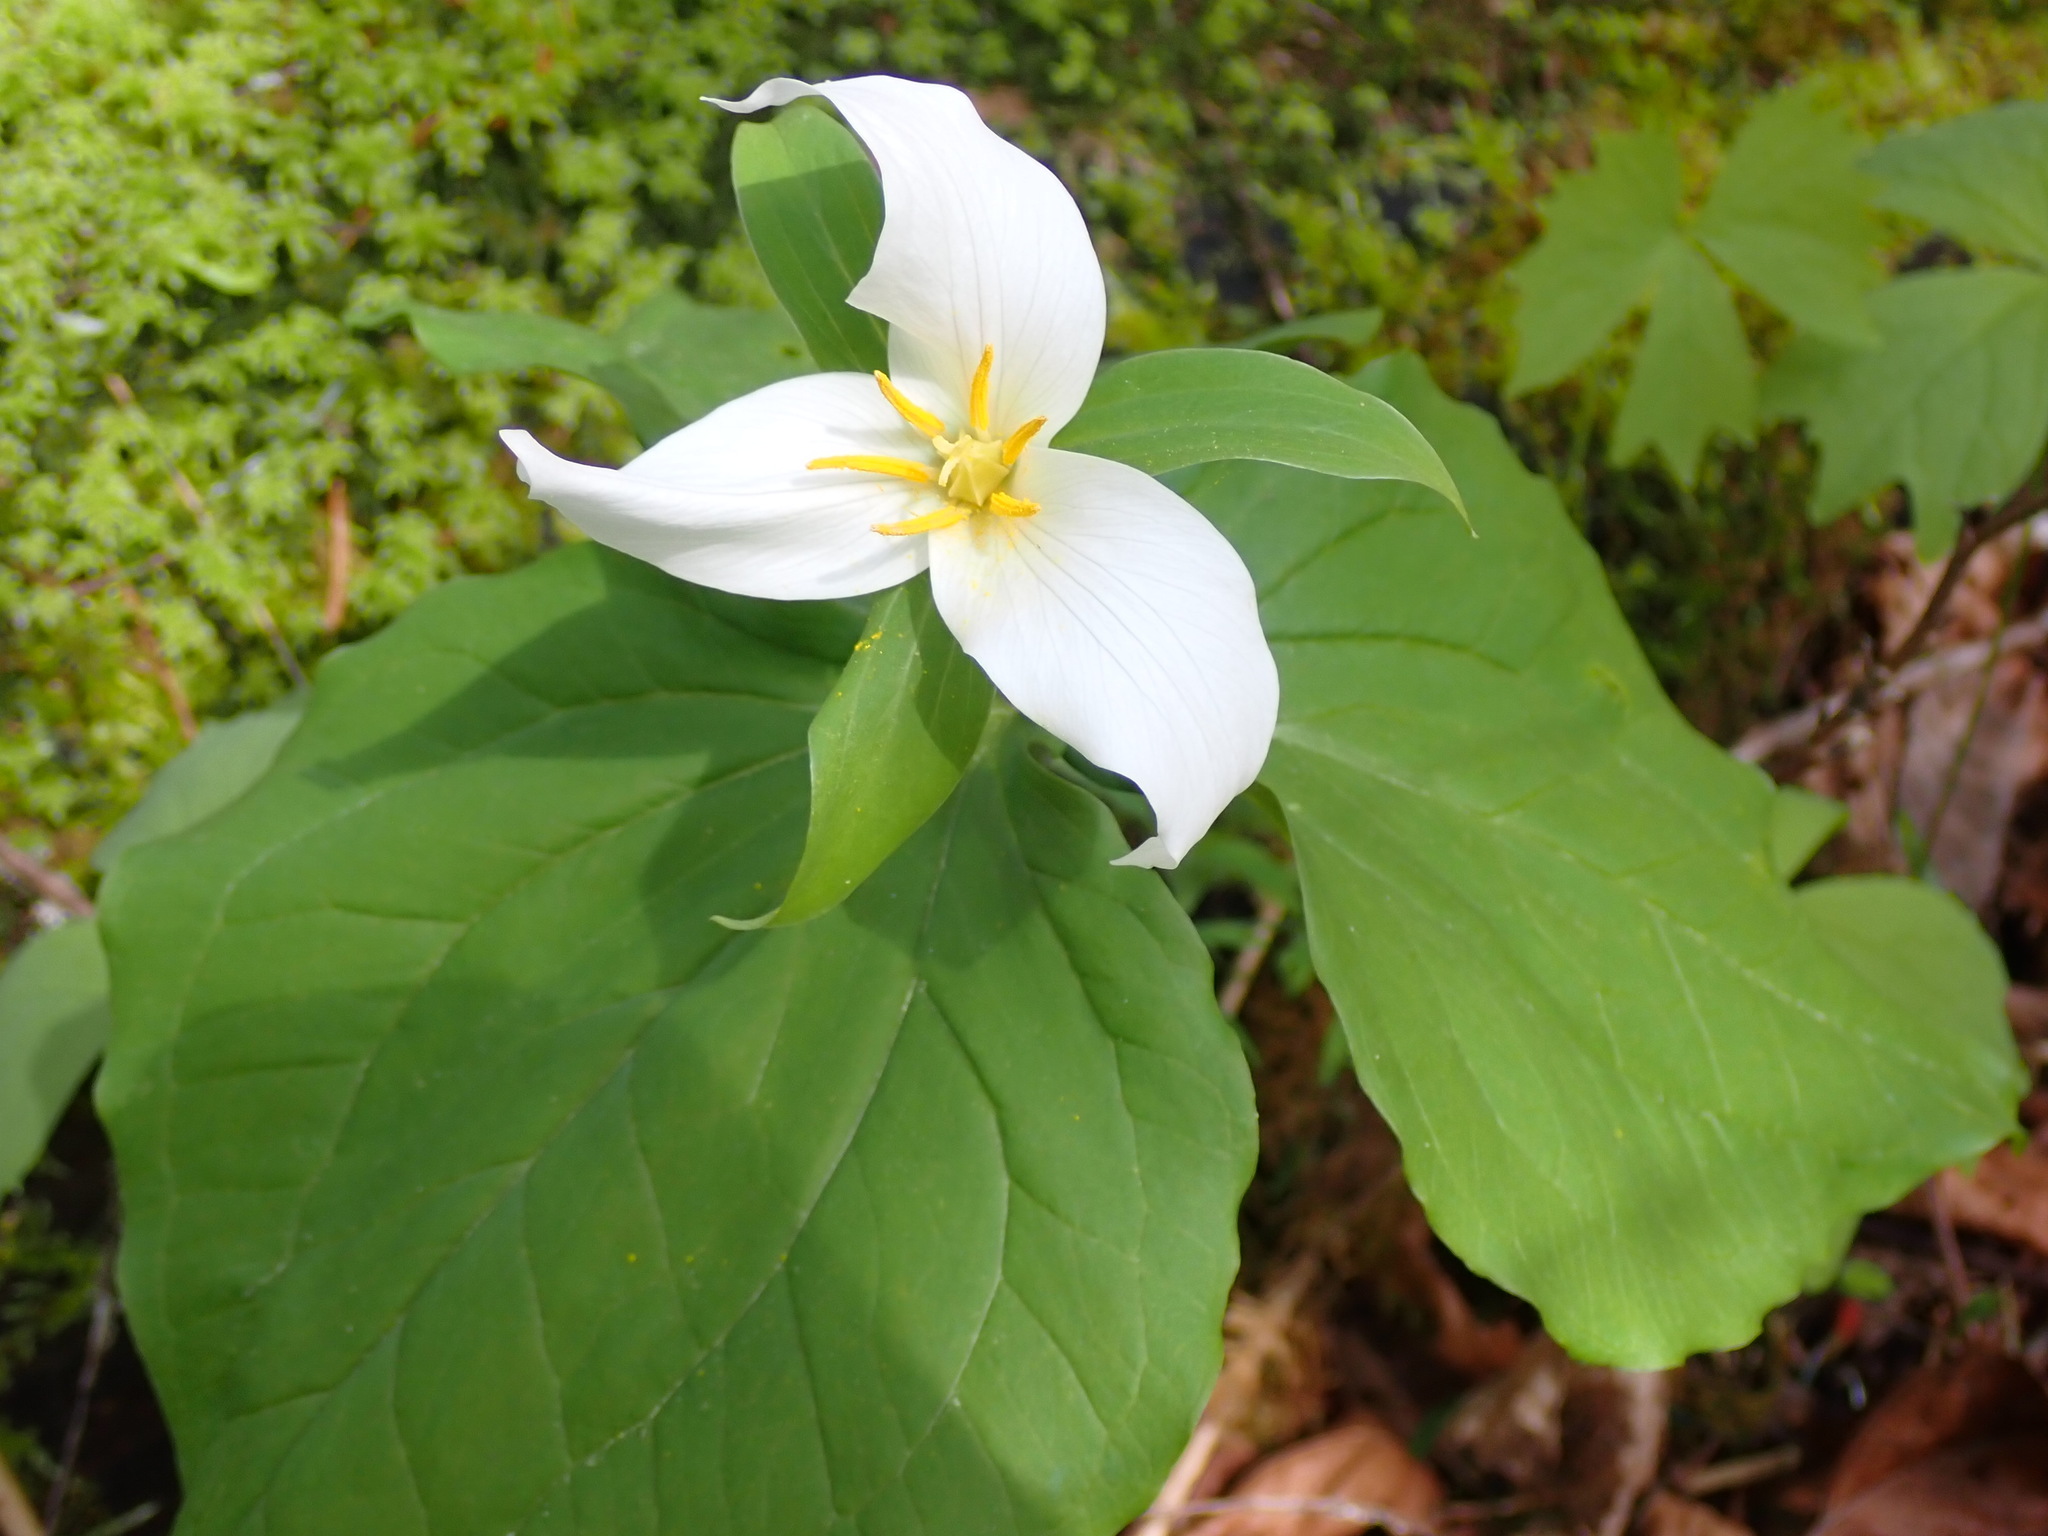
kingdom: Plantae
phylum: Tracheophyta
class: Liliopsida
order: Liliales
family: Melanthiaceae
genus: Trillium
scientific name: Trillium ovatum
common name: Pacific trillium
